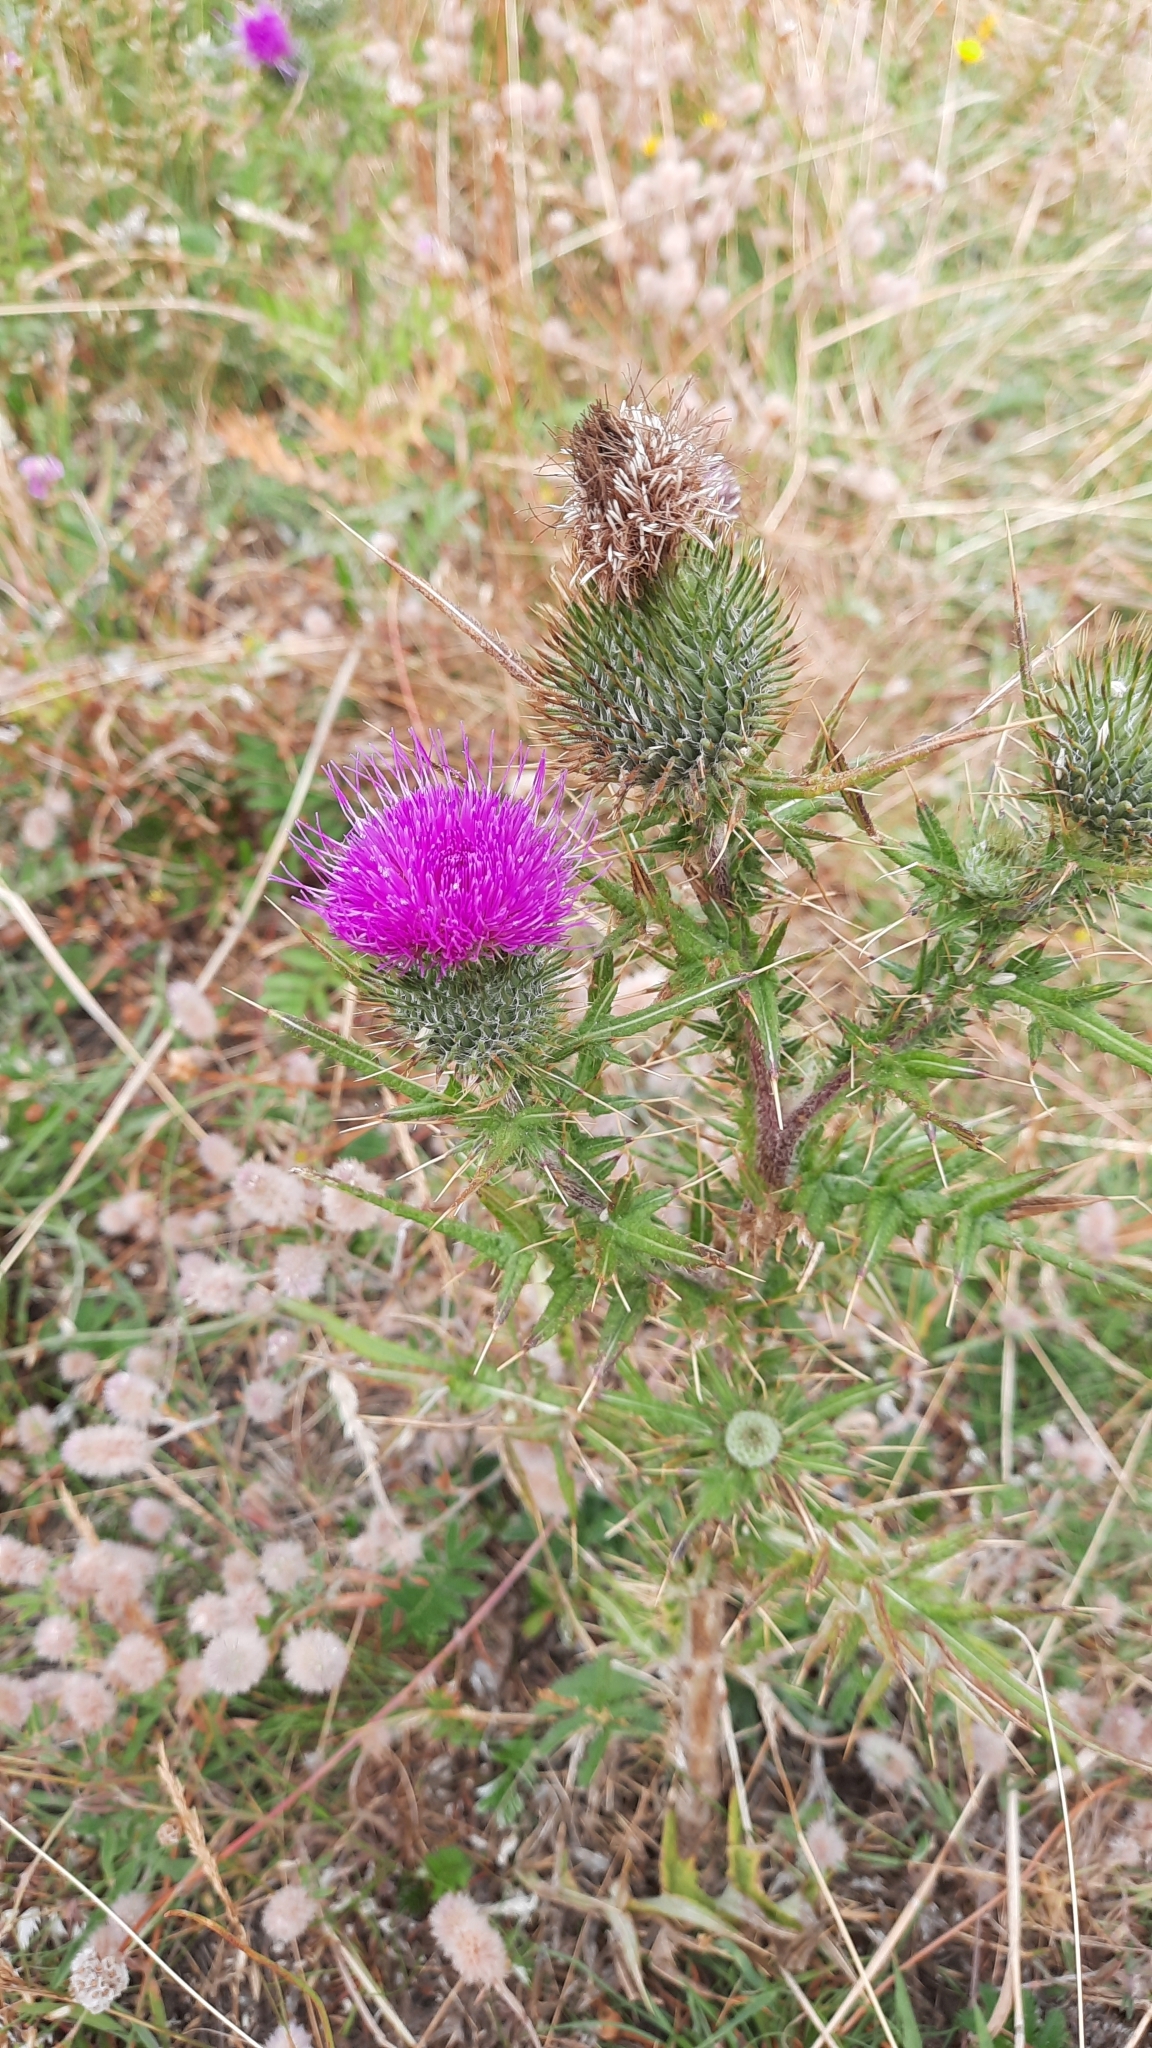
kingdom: Plantae
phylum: Tracheophyta
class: Magnoliopsida
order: Asterales
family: Asteraceae
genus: Cirsium
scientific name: Cirsium vulgare
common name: Bull thistle
